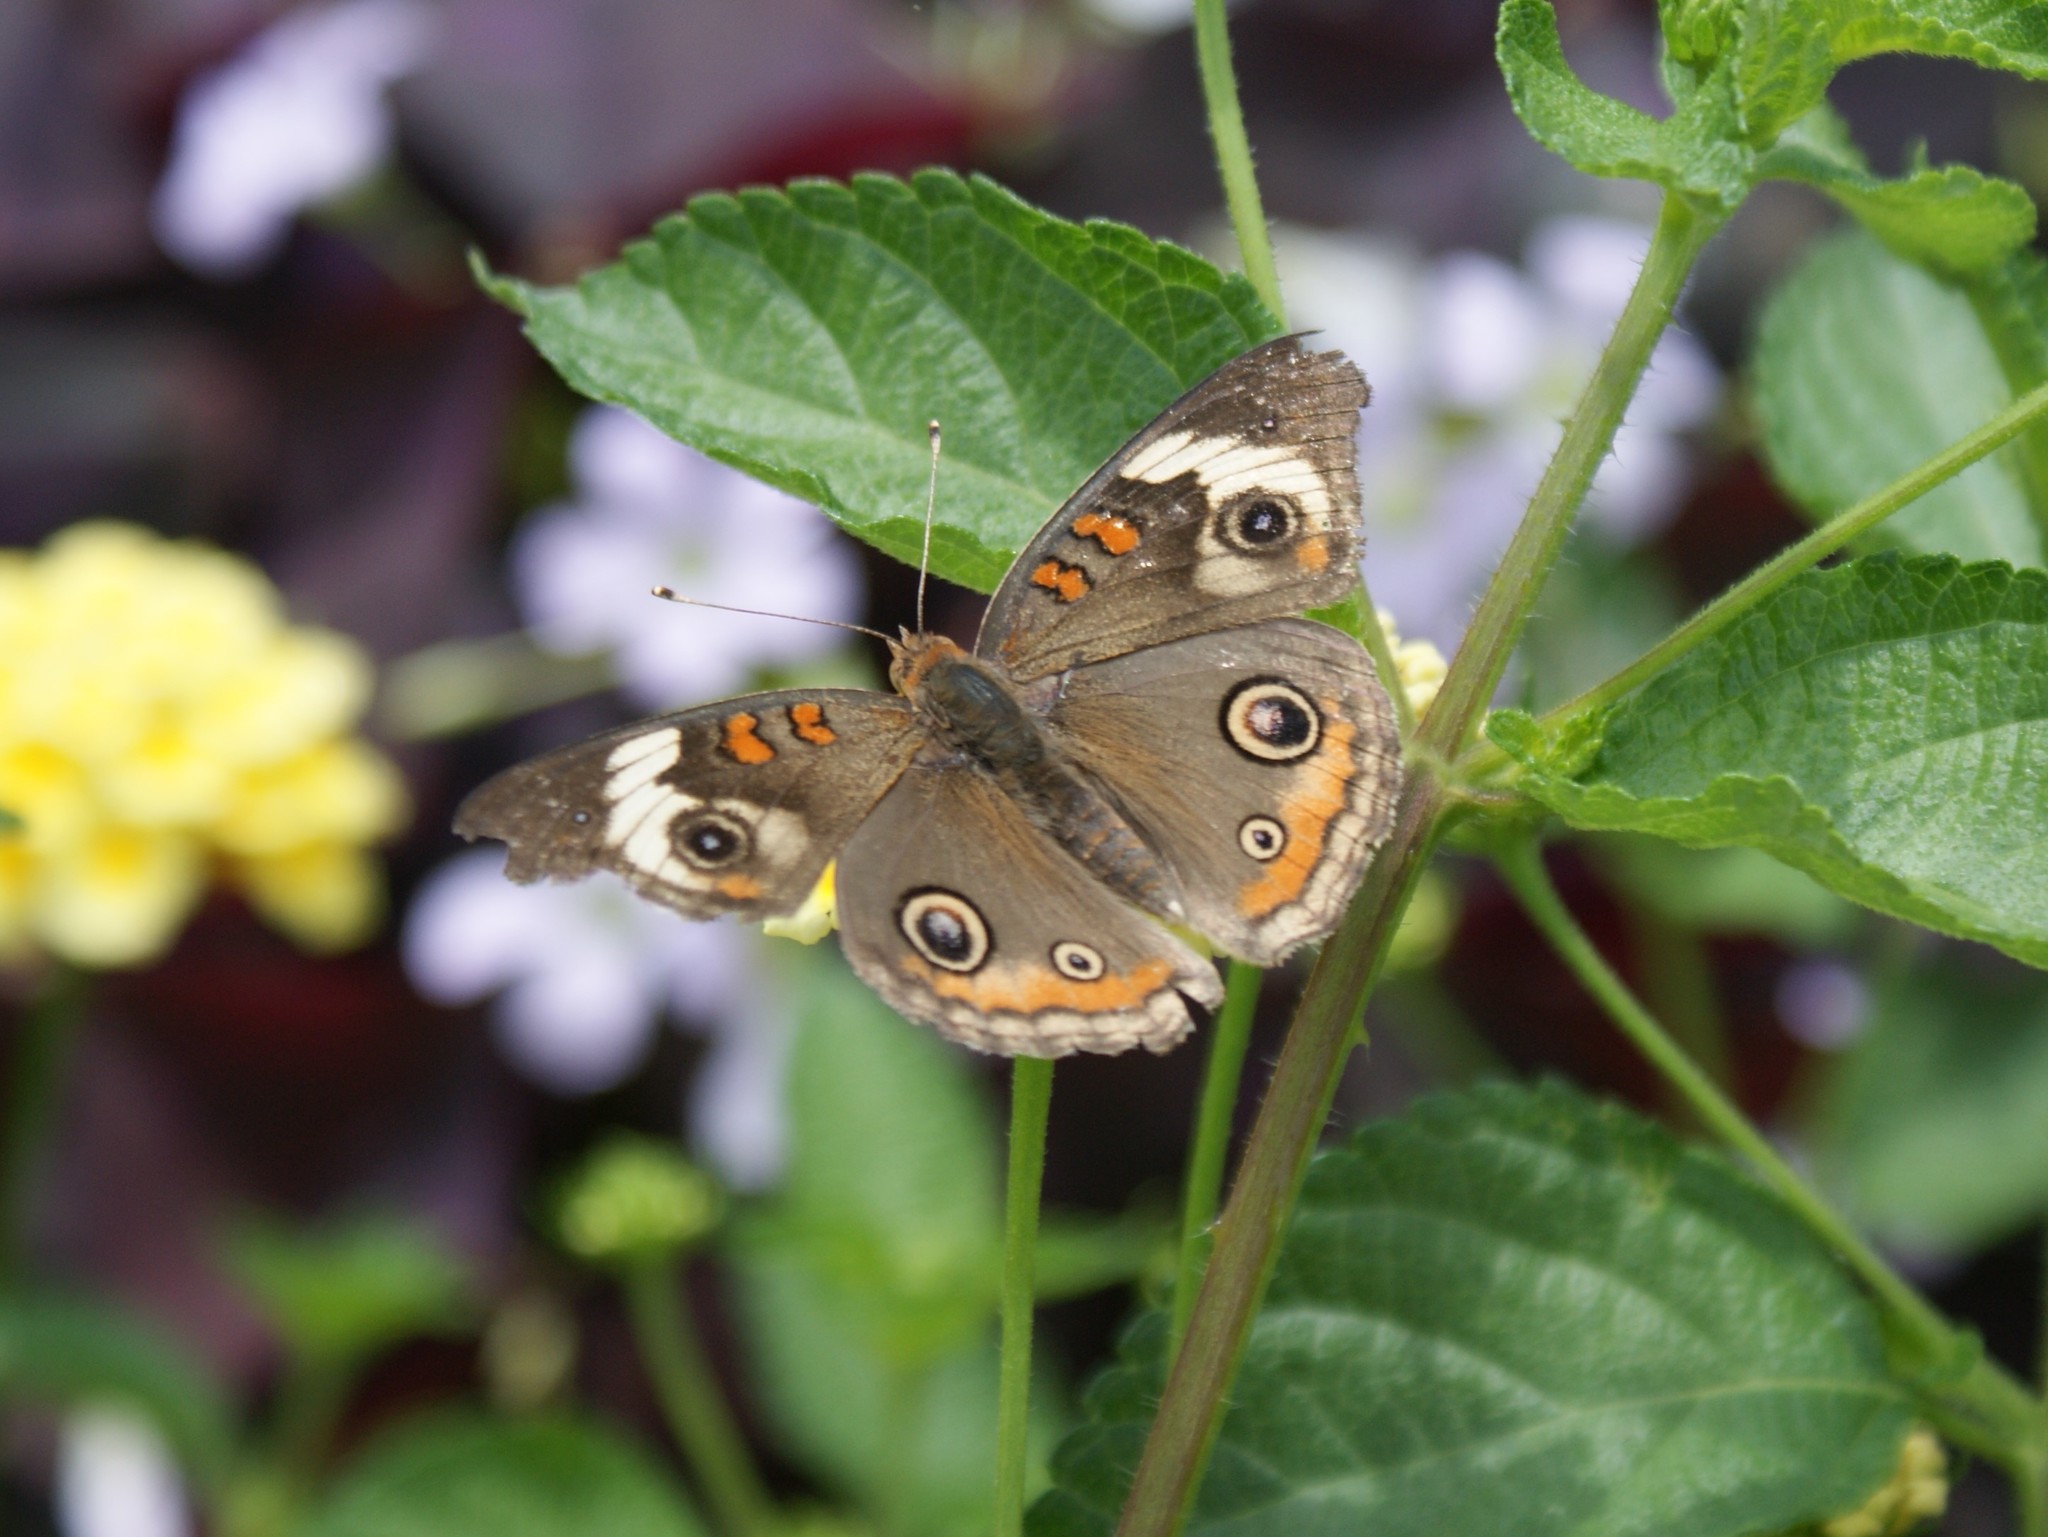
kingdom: Animalia
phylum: Arthropoda
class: Insecta
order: Lepidoptera
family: Nymphalidae
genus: Junonia
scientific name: Junonia coenia
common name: Common buckeye
